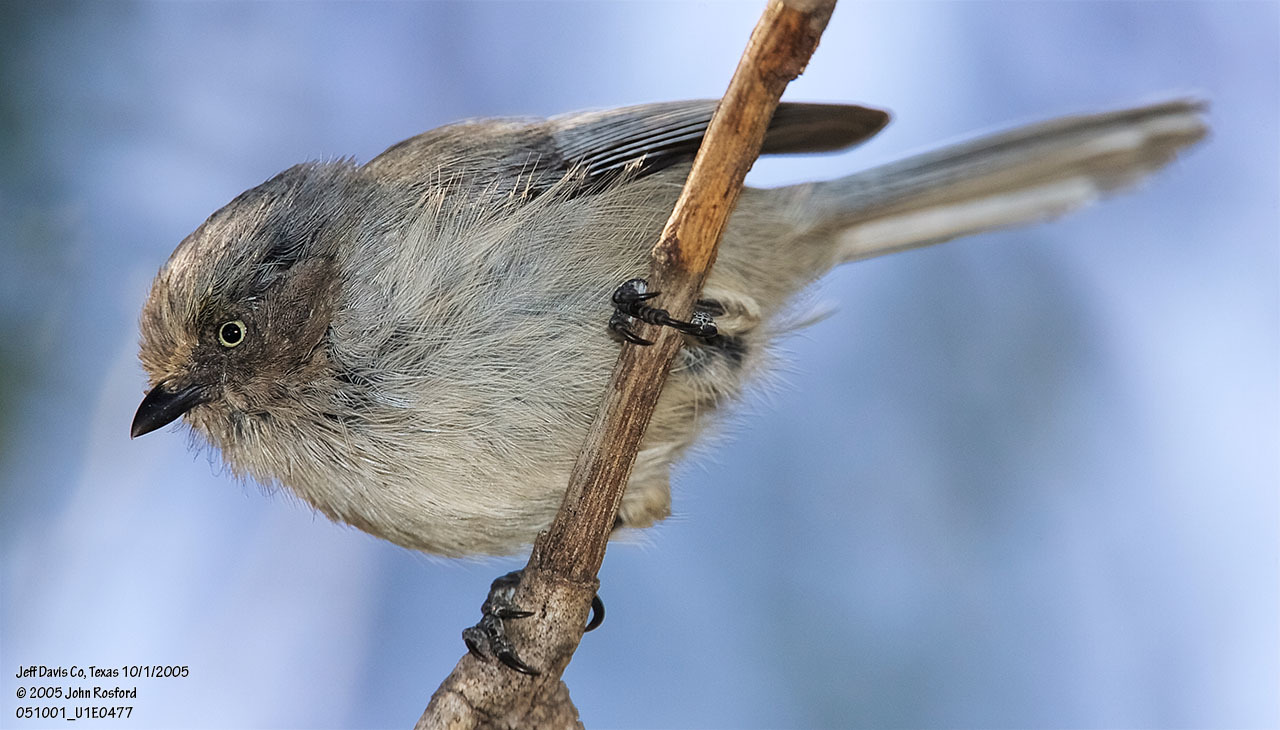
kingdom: Animalia
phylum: Chordata
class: Aves
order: Passeriformes
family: Aegithalidae
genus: Psaltriparus
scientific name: Psaltriparus minimus
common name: American bushtit
